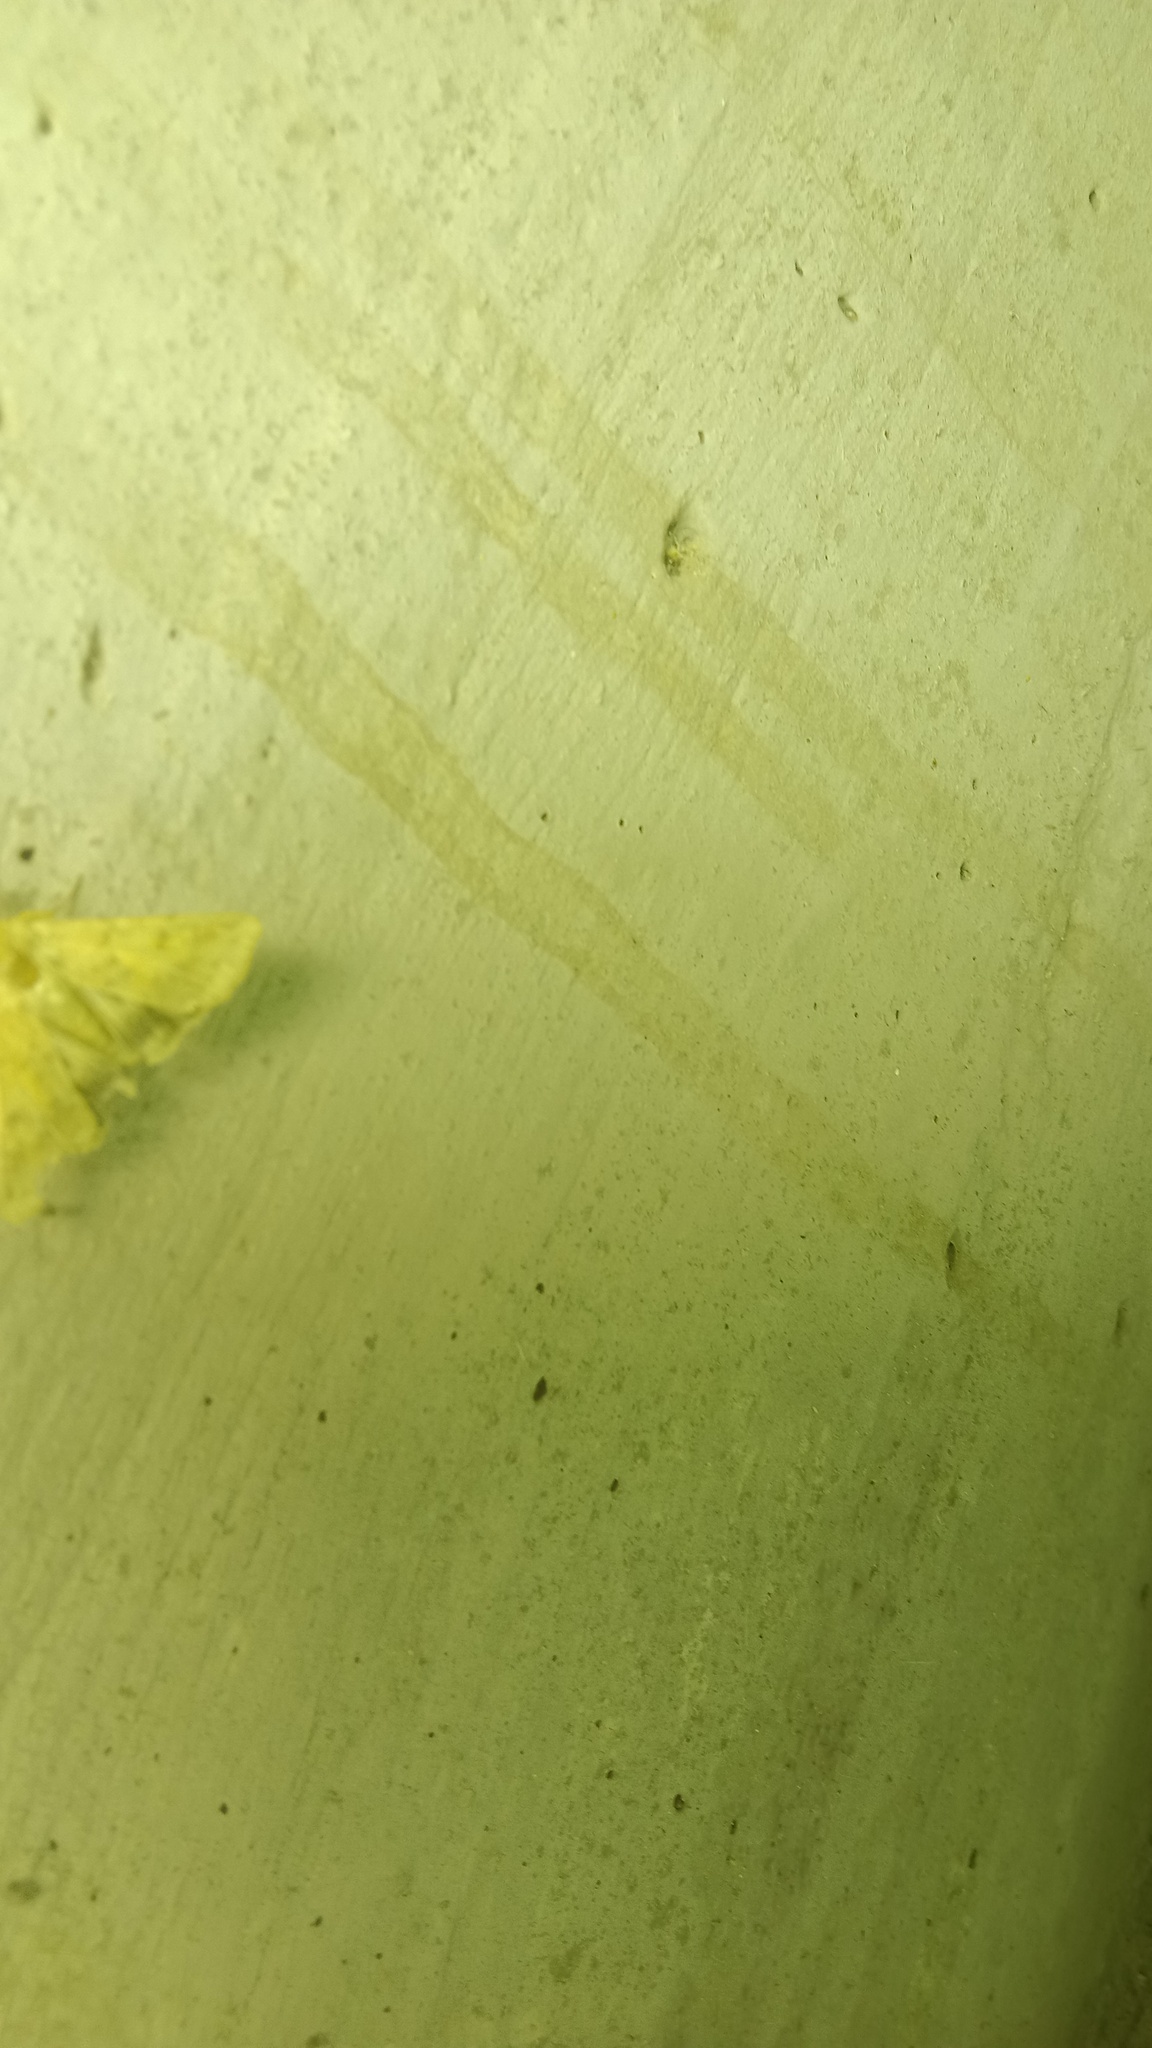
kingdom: Animalia
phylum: Arthropoda
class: Insecta
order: Lepidoptera
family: Noctuidae
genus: Helicoverpa
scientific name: Helicoverpa armigera
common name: Cotton bollworm
